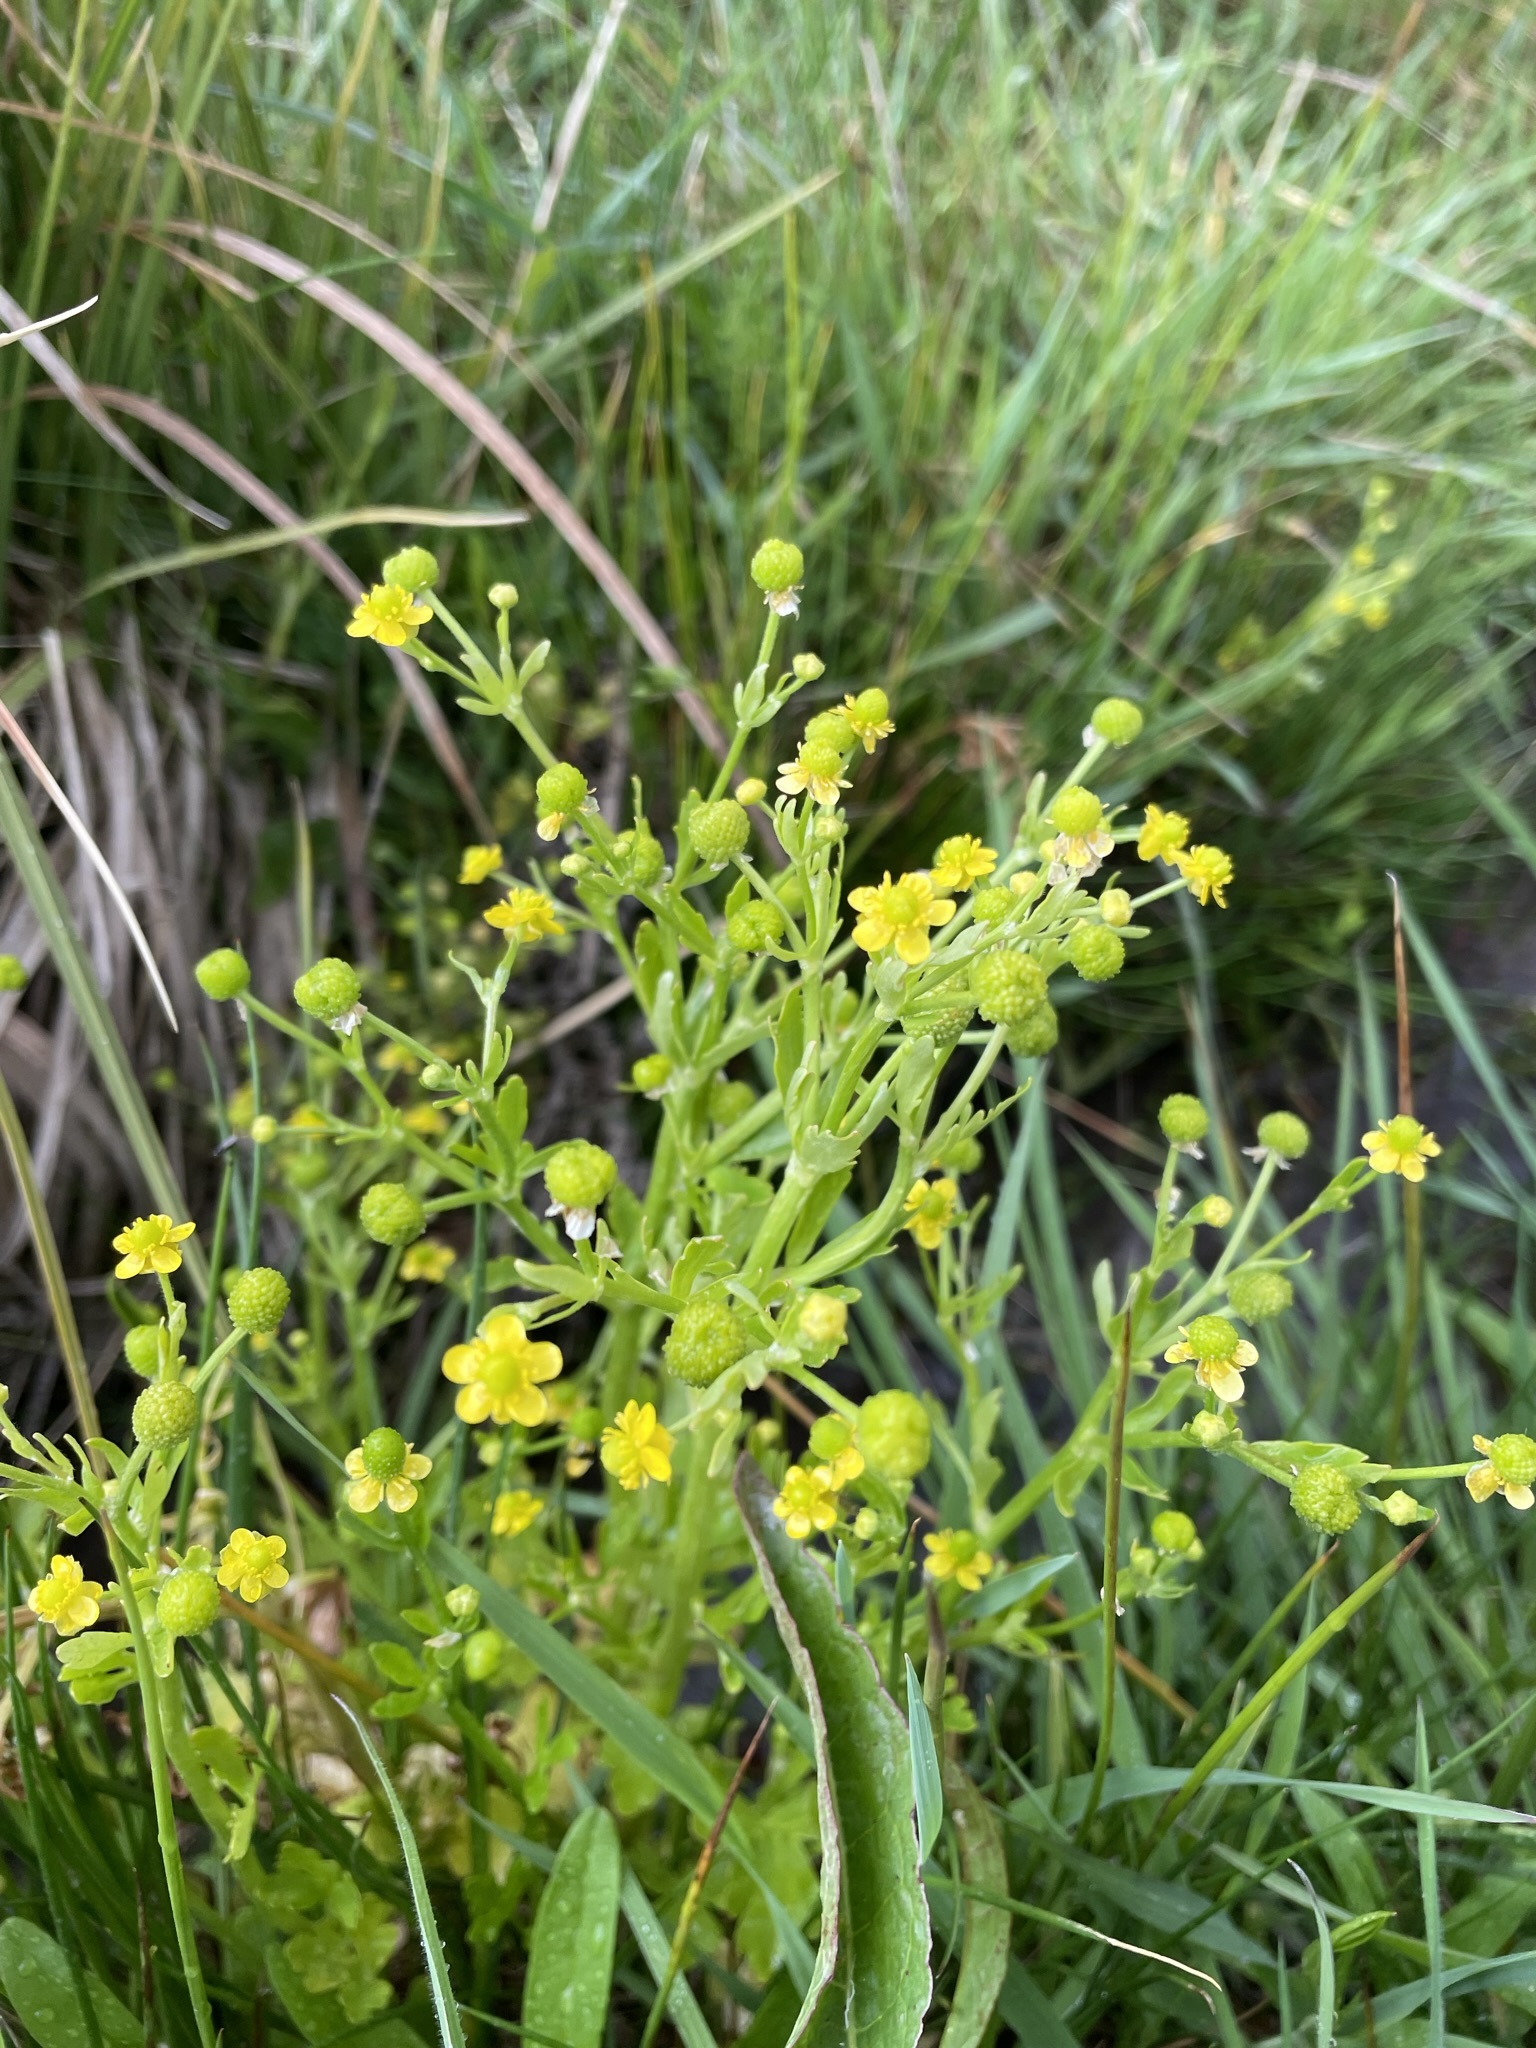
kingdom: Plantae
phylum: Tracheophyta
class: Magnoliopsida
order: Ranunculales
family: Ranunculaceae
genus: Ranunculus
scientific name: Ranunculus sceleratus
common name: Celery-leaved buttercup
